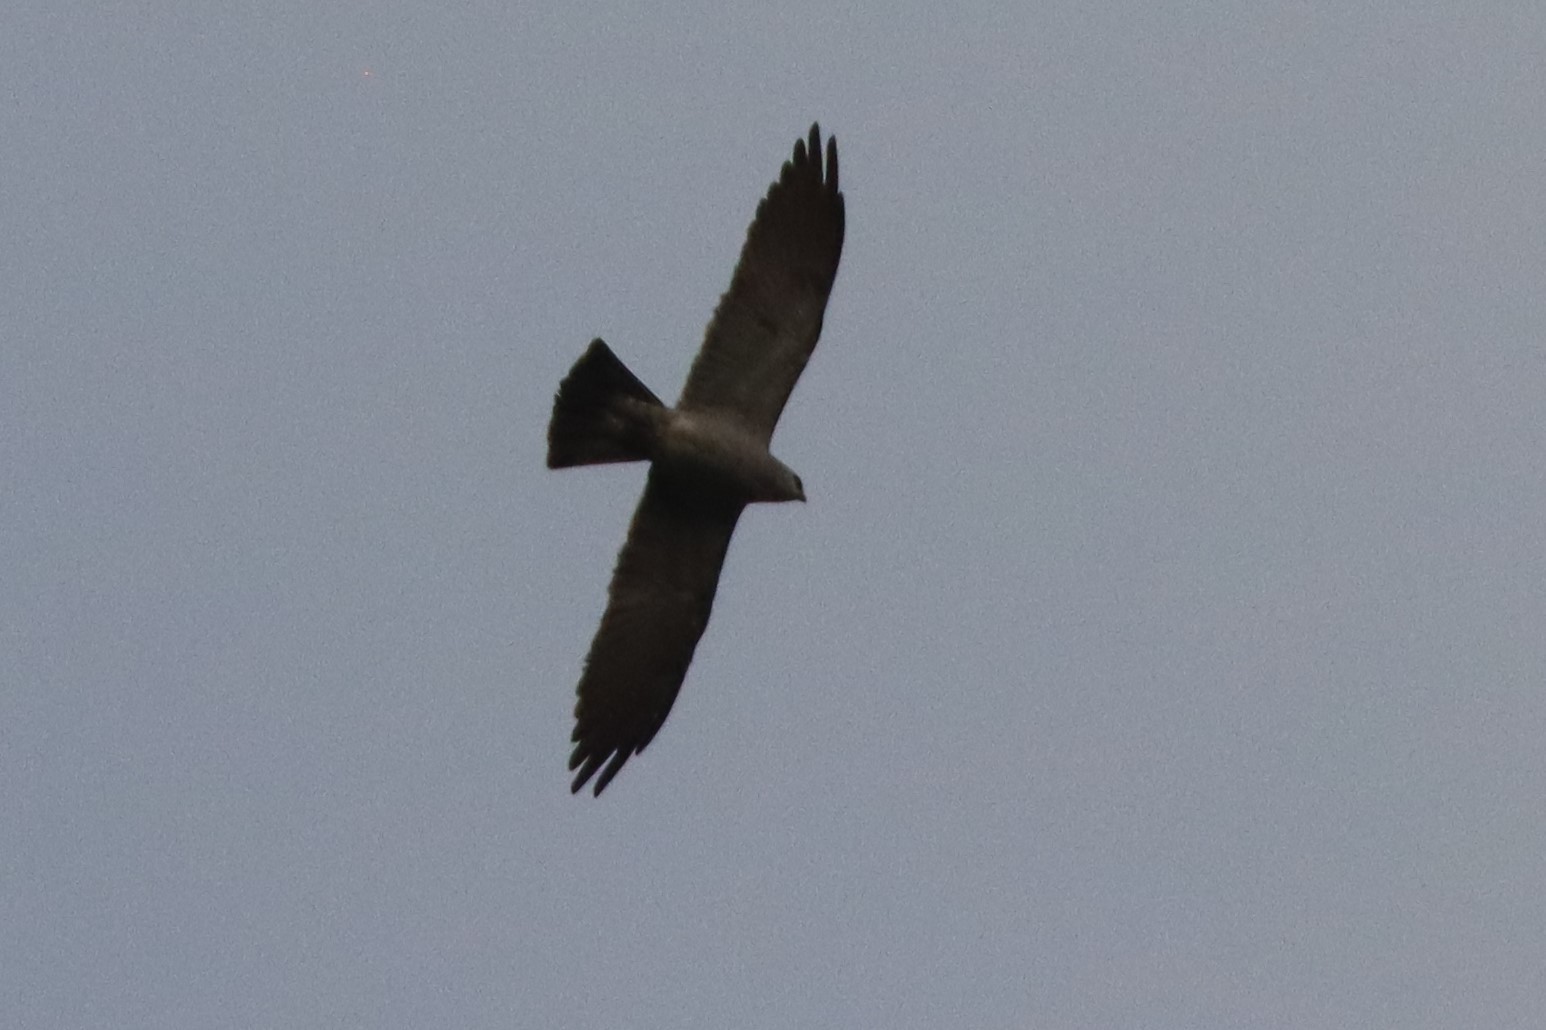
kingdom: Animalia
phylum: Chordata
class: Aves
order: Accipitriformes
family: Accipitridae
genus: Ictinia
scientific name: Ictinia mississippiensis
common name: Mississippi kite
